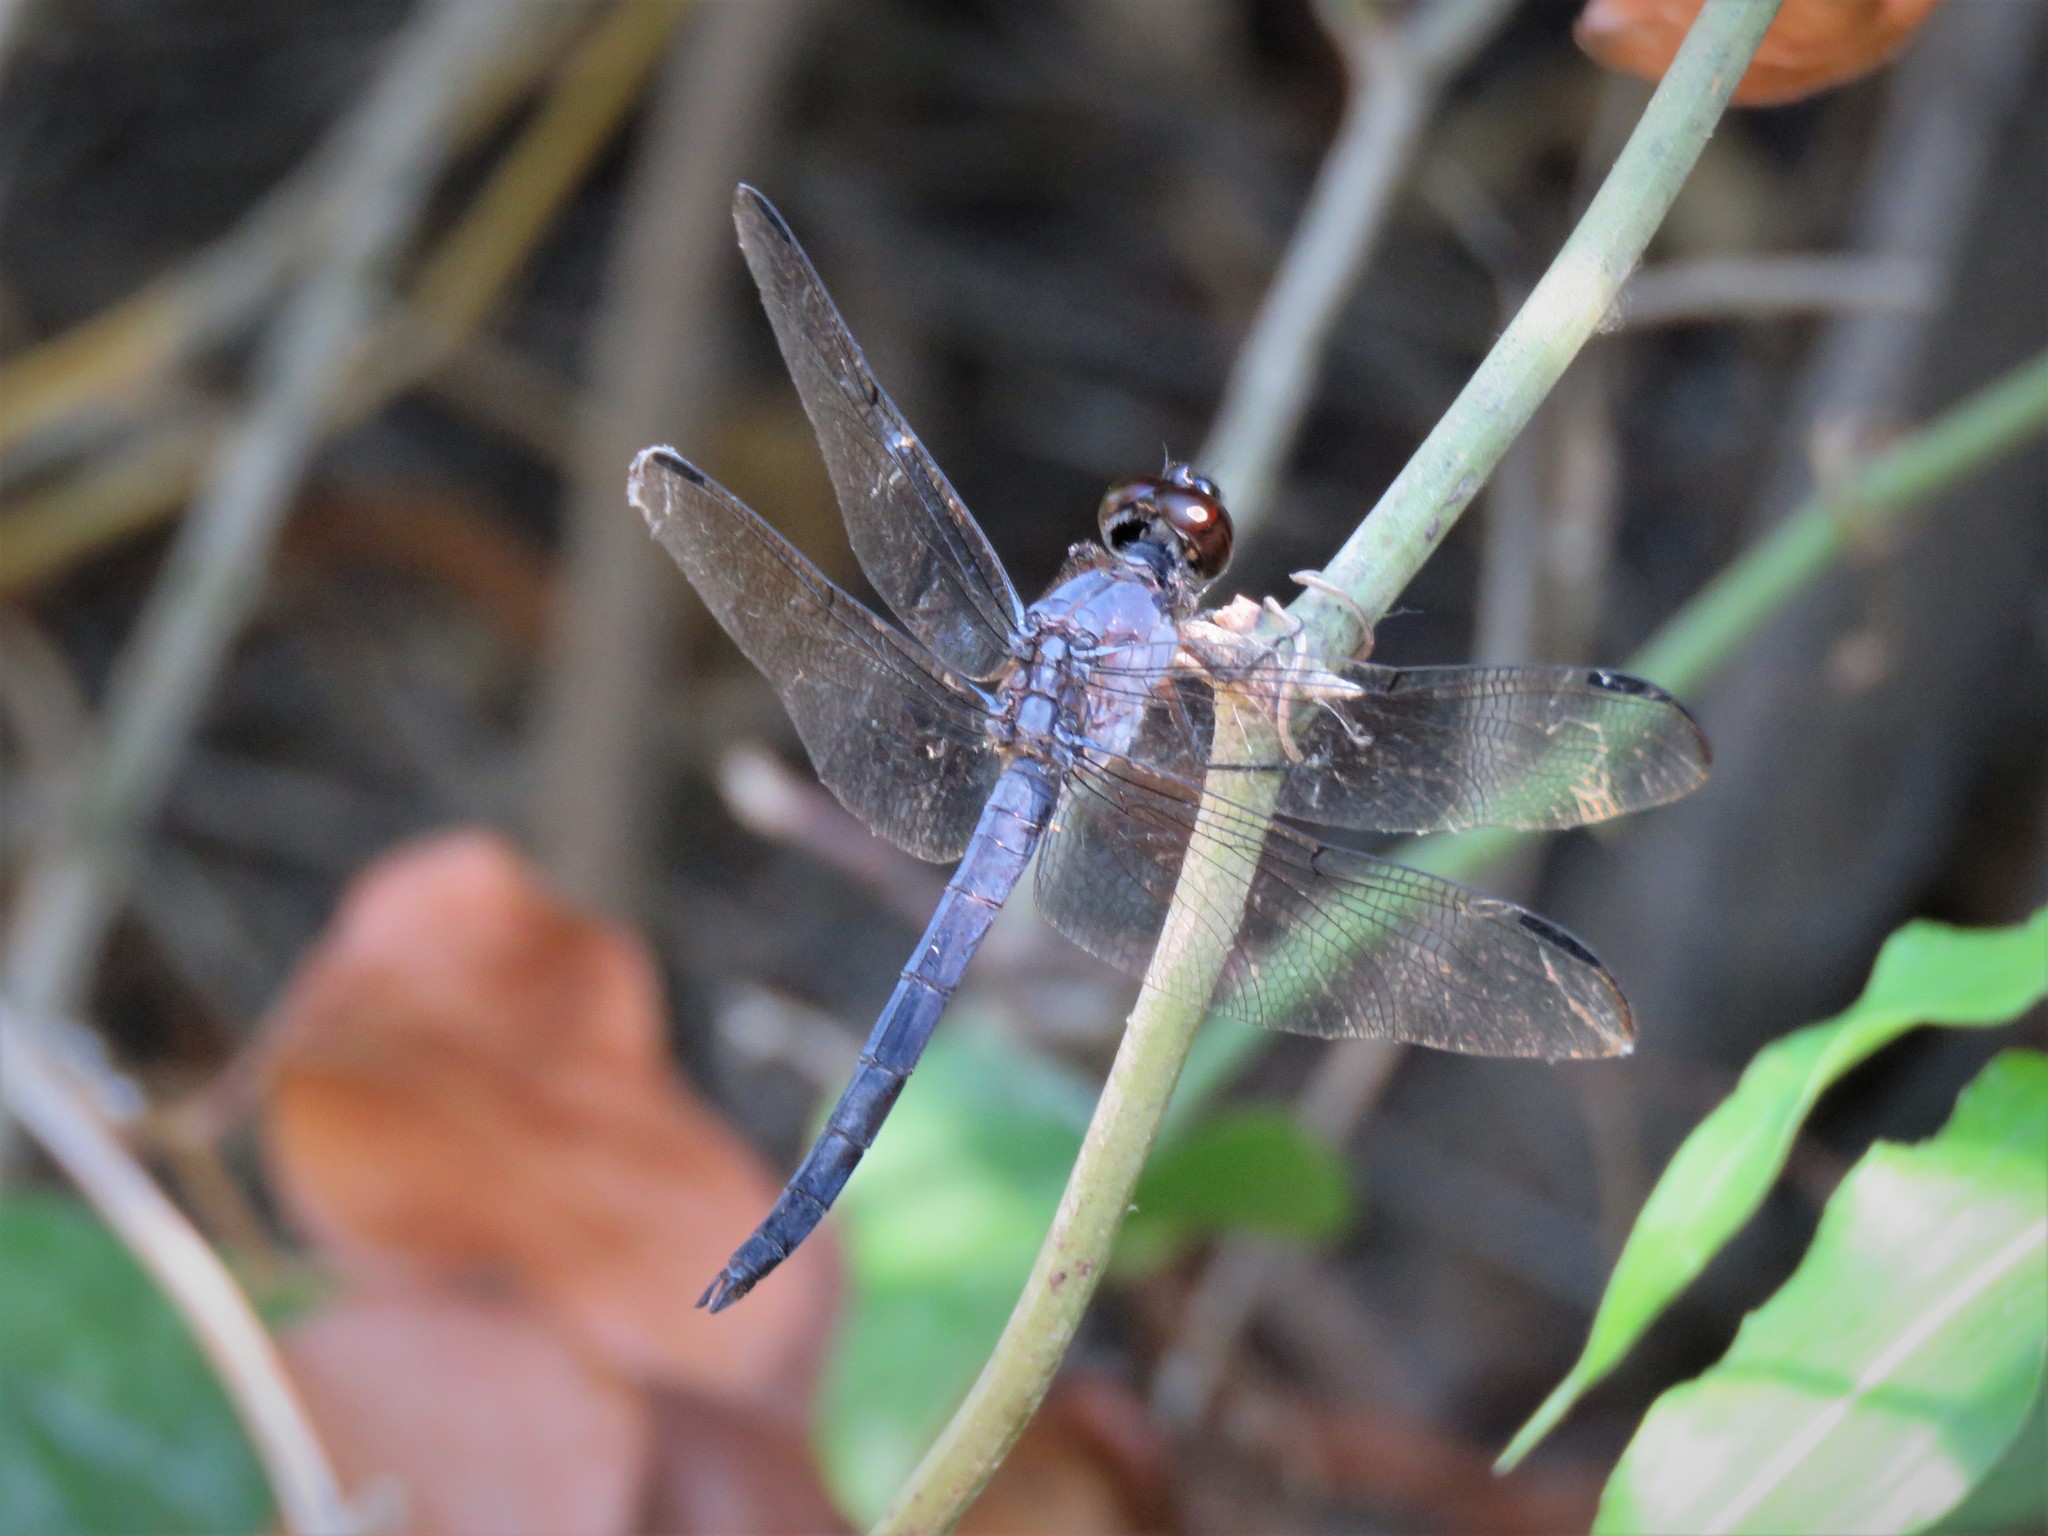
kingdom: Animalia
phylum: Arthropoda
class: Insecta
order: Odonata
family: Libellulidae
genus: Libellula
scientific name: Libellula incesta
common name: Slaty skimmer
